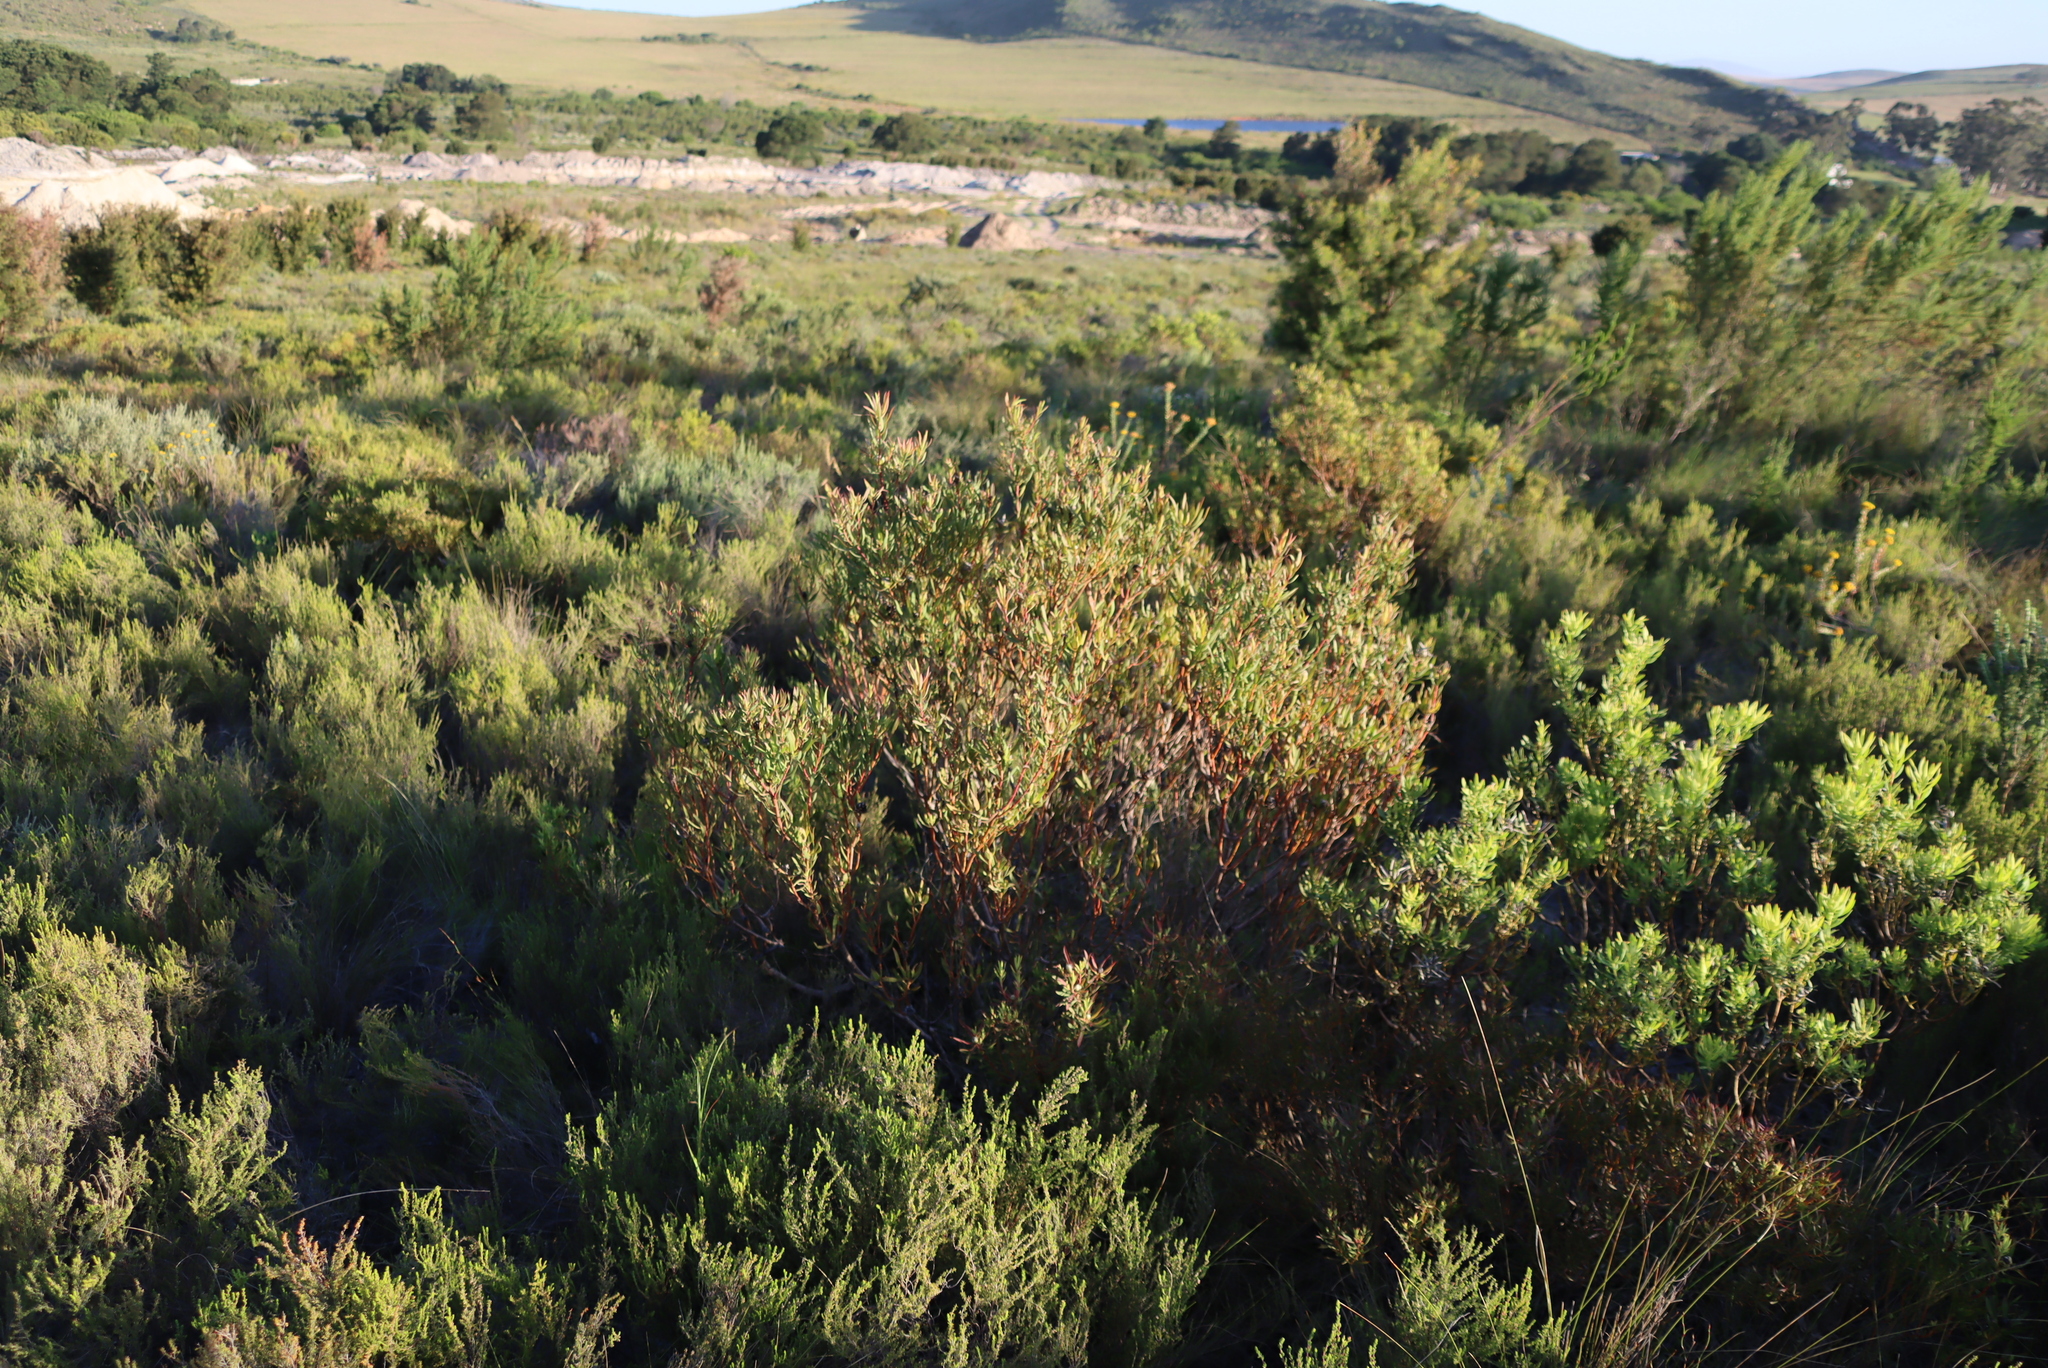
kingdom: Plantae
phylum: Tracheophyta
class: Magnoliopsida
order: Proteales
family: Proteaceae
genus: Leucadendron
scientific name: Leucadendron salignum
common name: Common sunshine conebush
